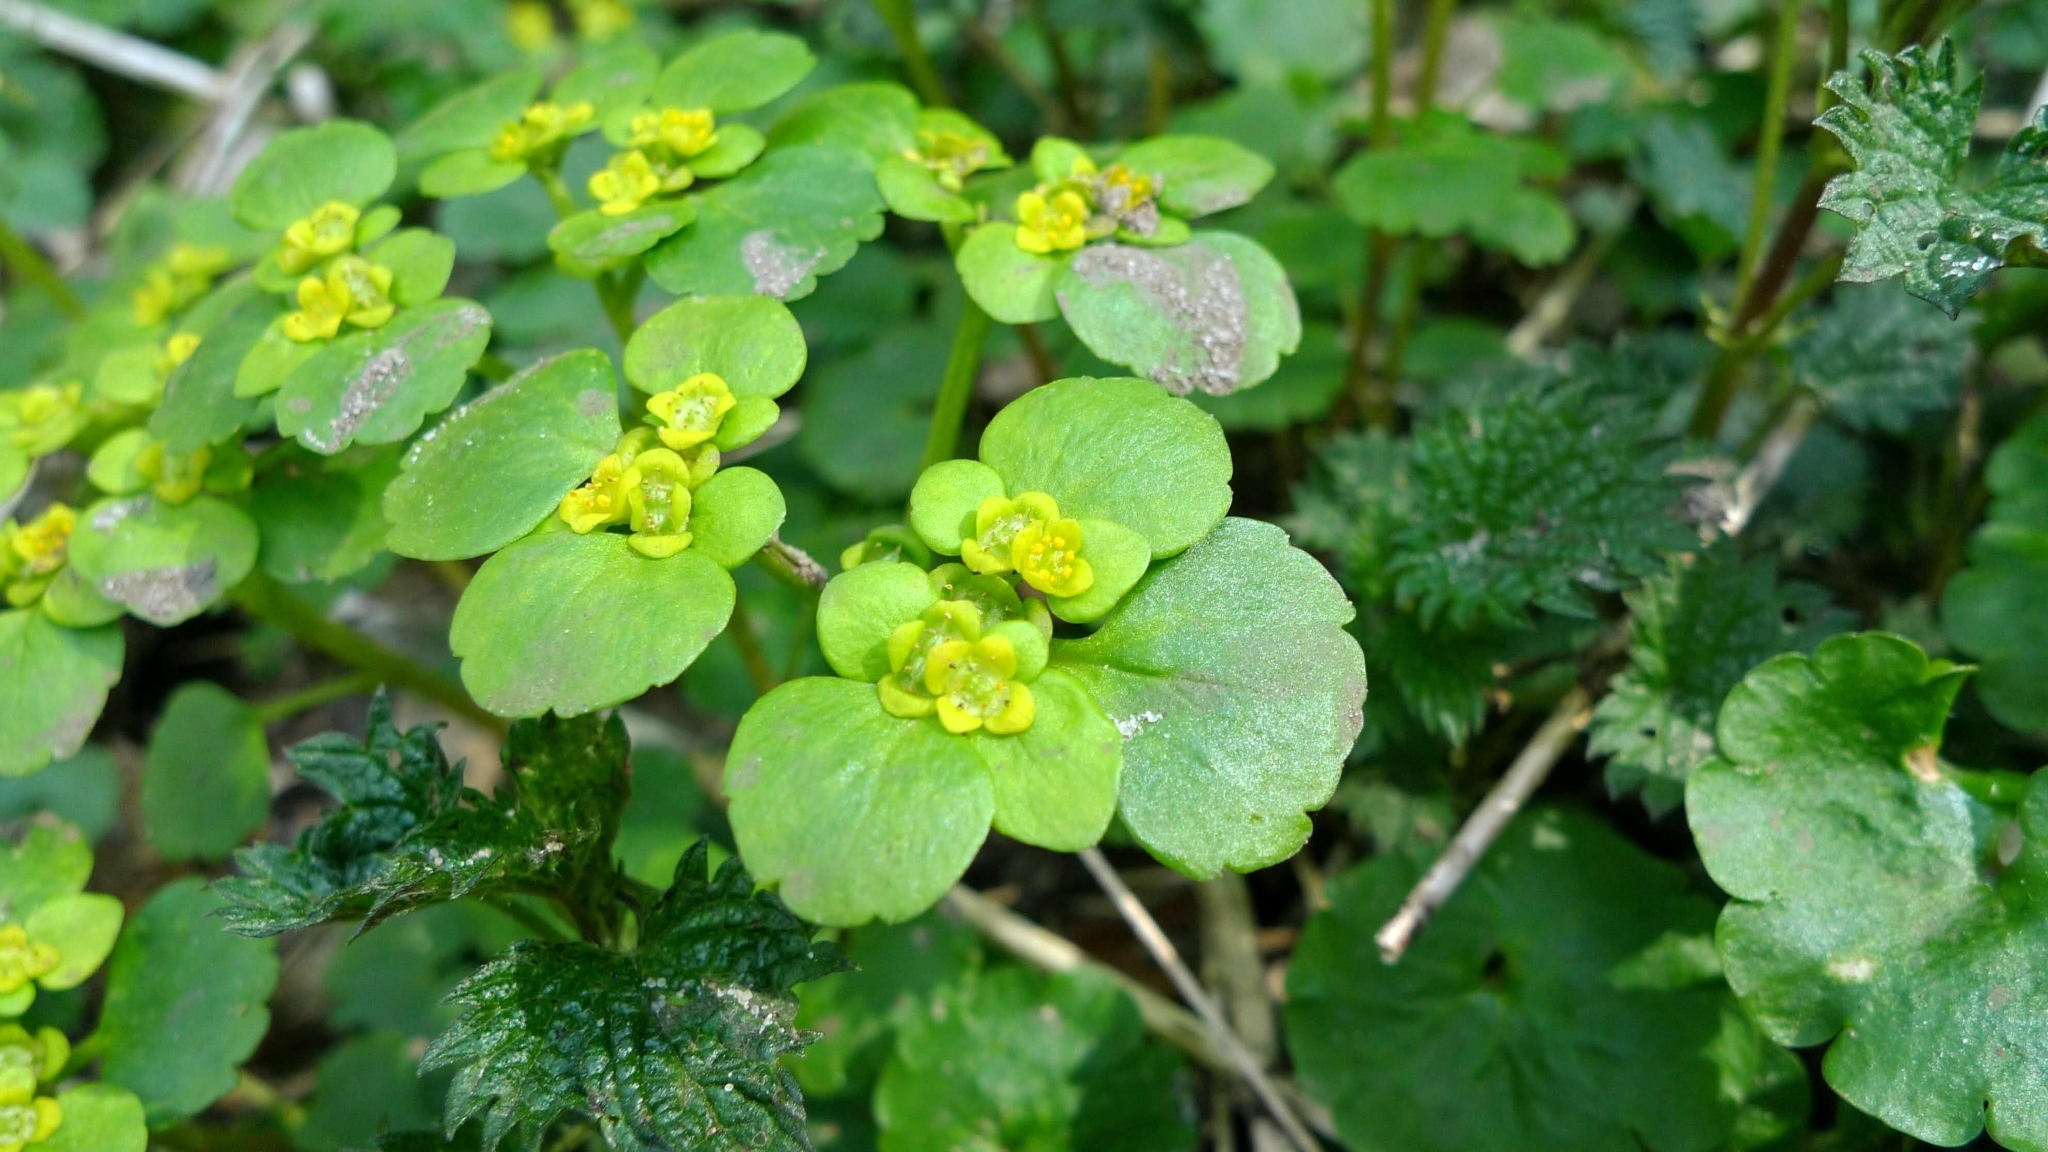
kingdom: Plantae
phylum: Tracheophyta
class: Magnoliopsida
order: Saxifragales
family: Saxifragaceae
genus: Chrysosplenium
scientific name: Chrysosplenium alternifolium
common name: Alternate-leaved golden-saxifrage
